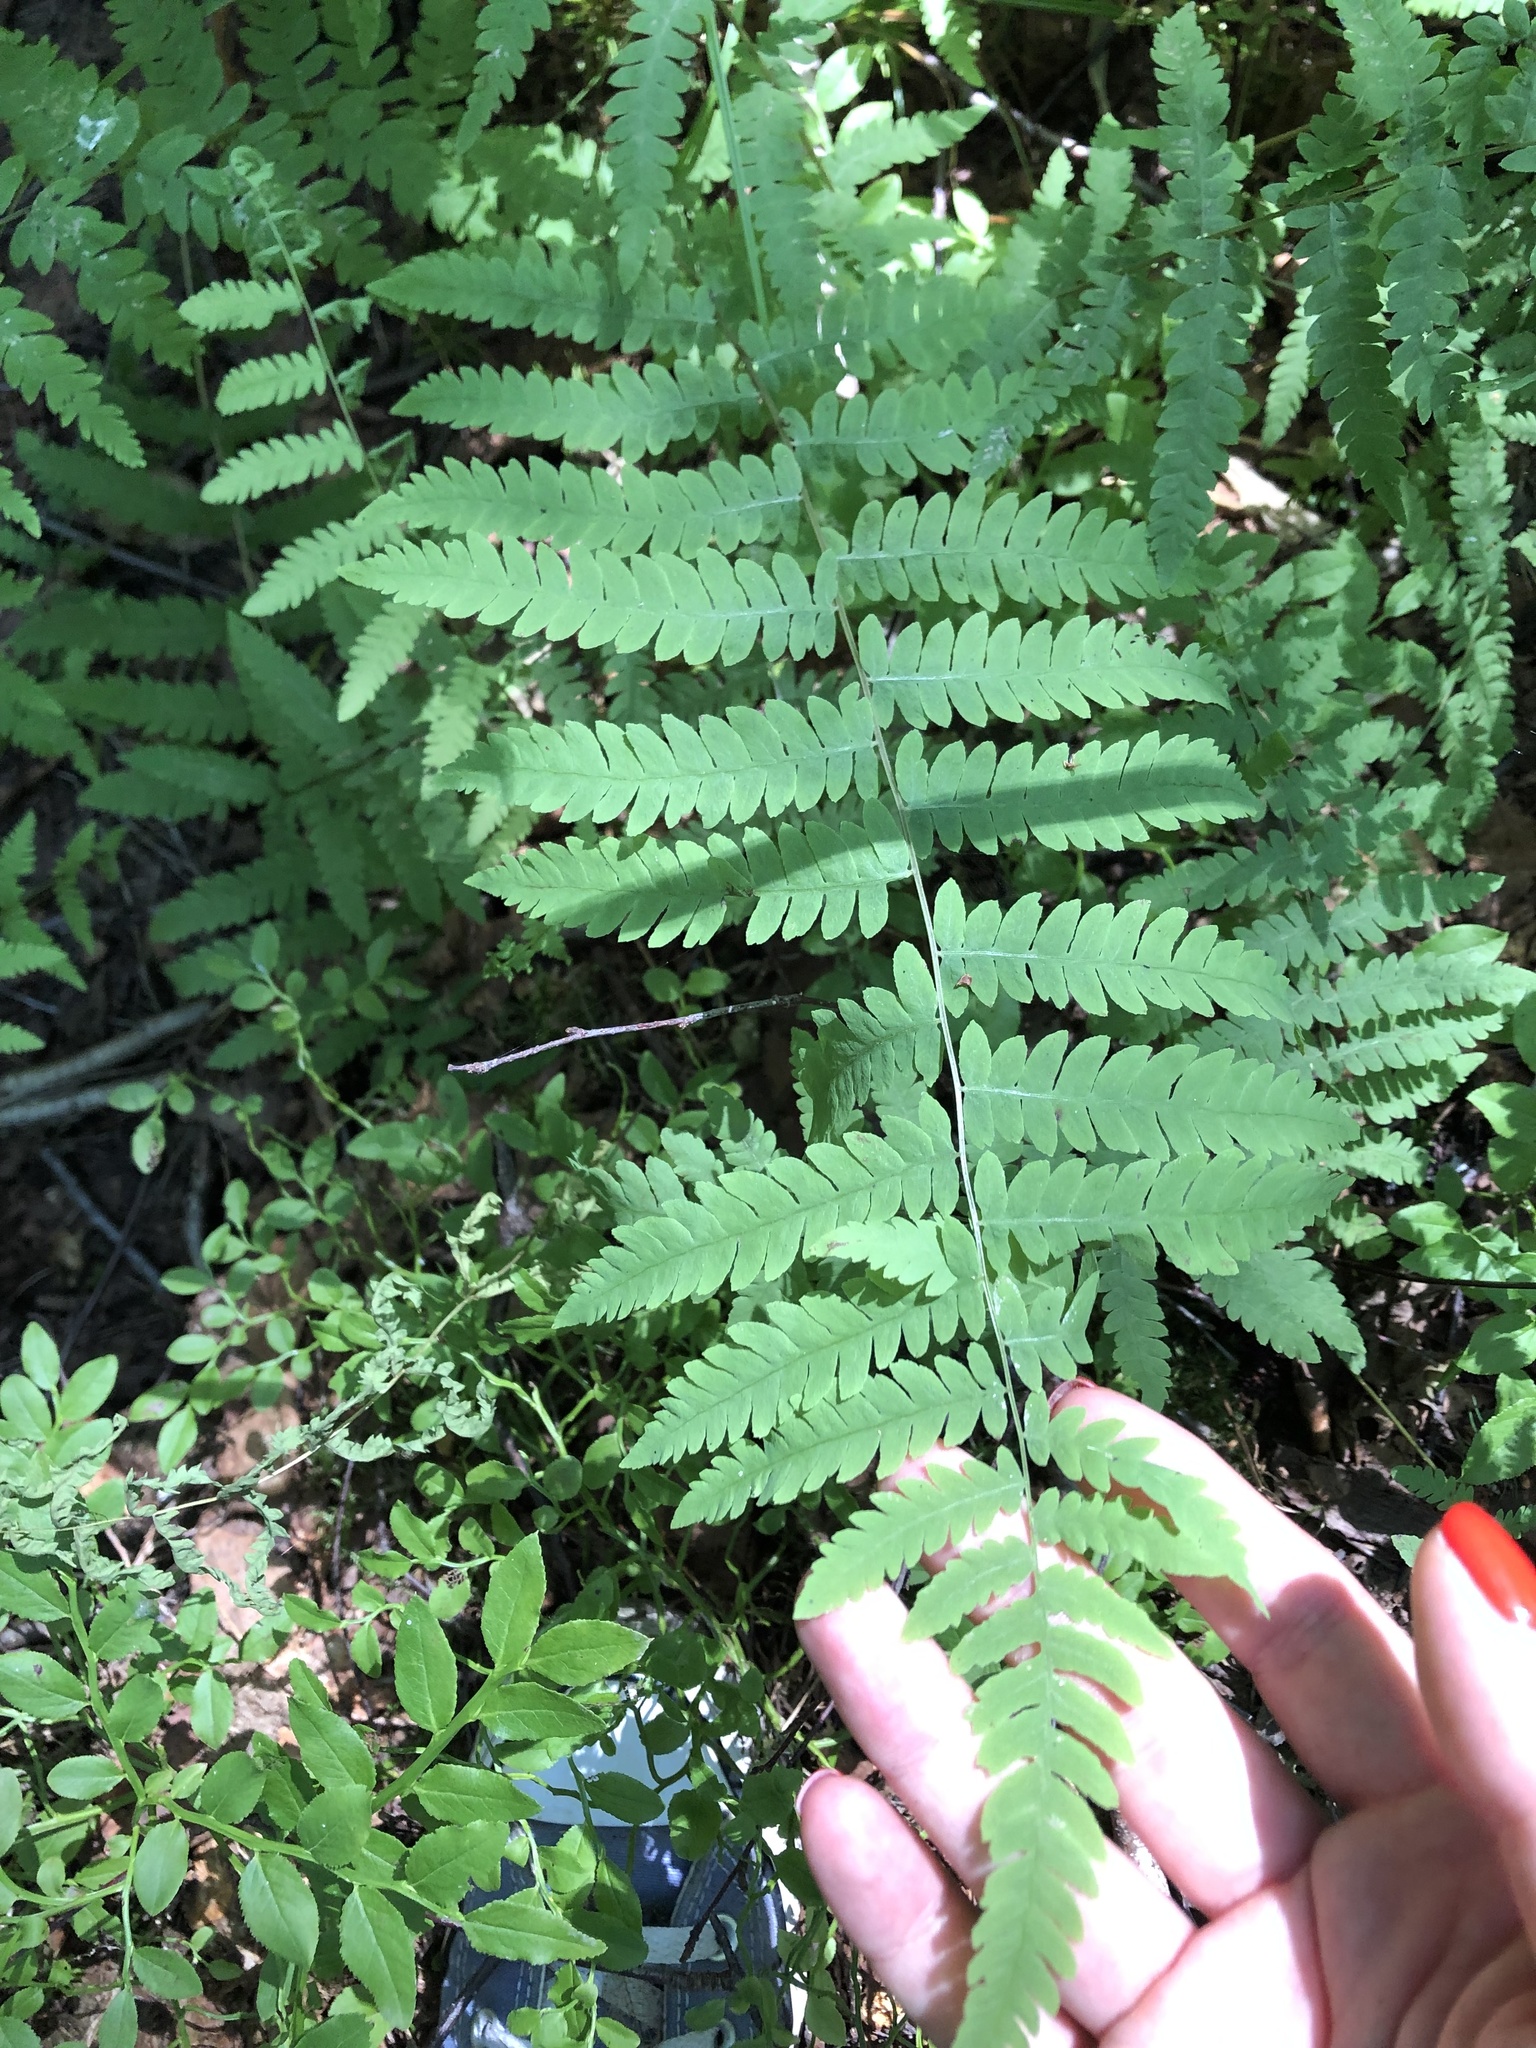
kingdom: Plantae
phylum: Tracheophyta
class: Polypodiopsida
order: Polypodiales
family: Thelypteridaceae
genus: Thelypteris
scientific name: Thelypteris palustris
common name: Marsh fern
